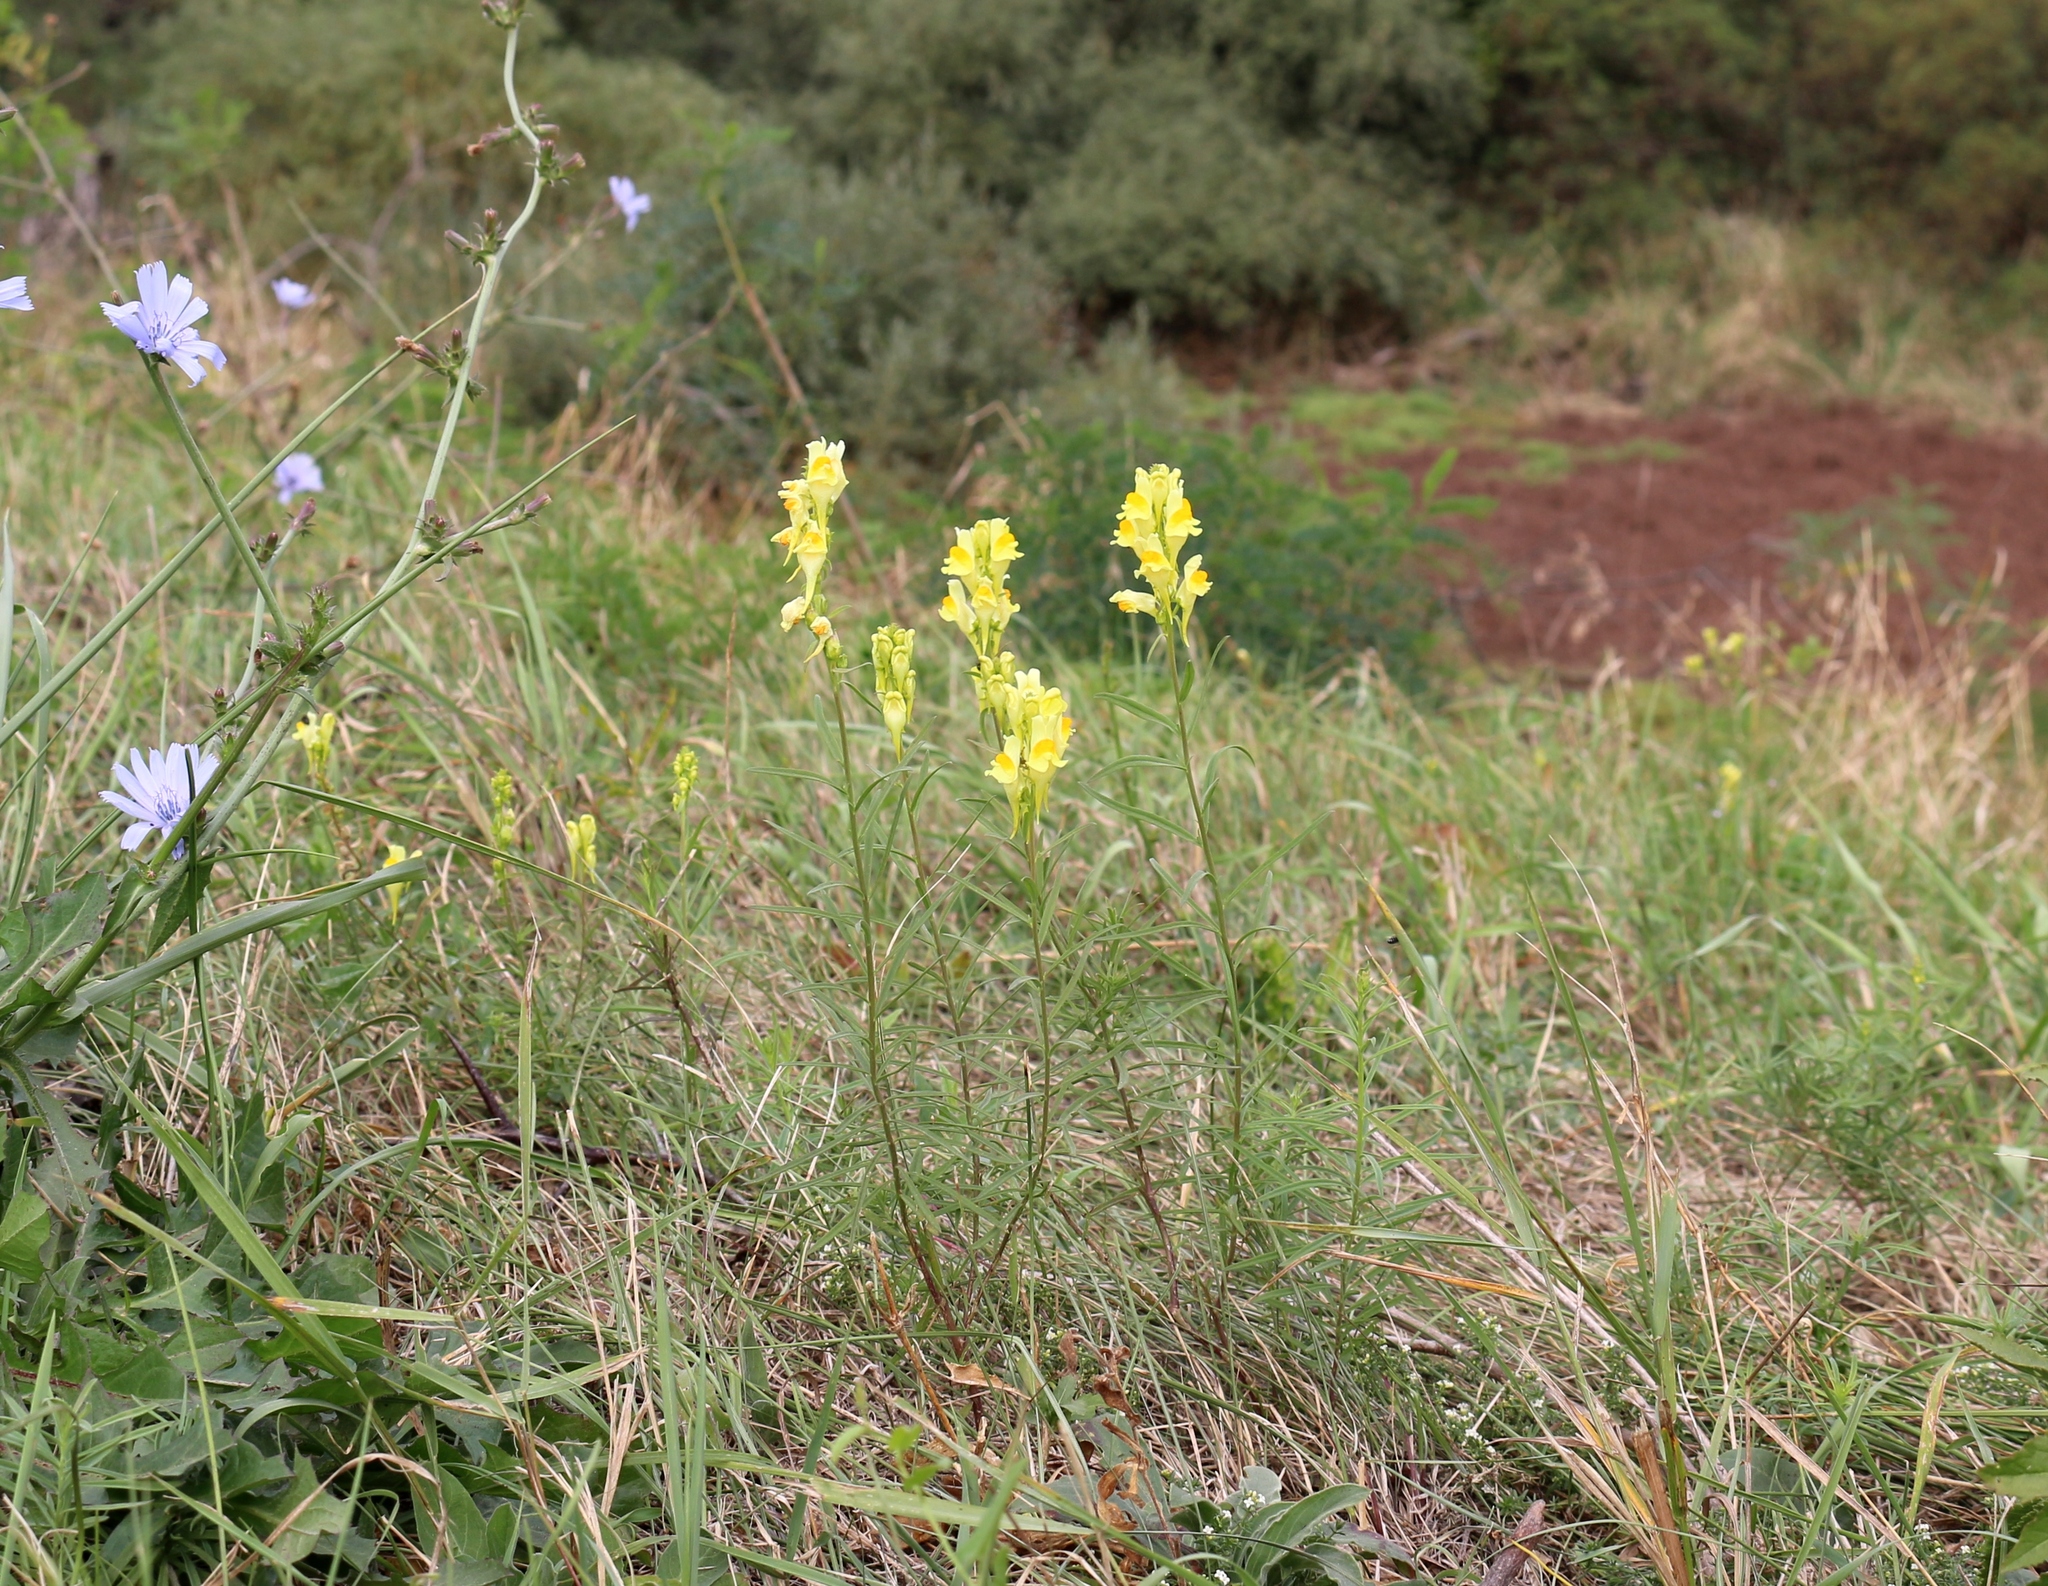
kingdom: Plantae
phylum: Tracheophyta
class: Magnoliopsida
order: Lamiales
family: Plantaginaceae
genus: Linaria
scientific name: Linaria vulgaris
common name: Butter and eggs
